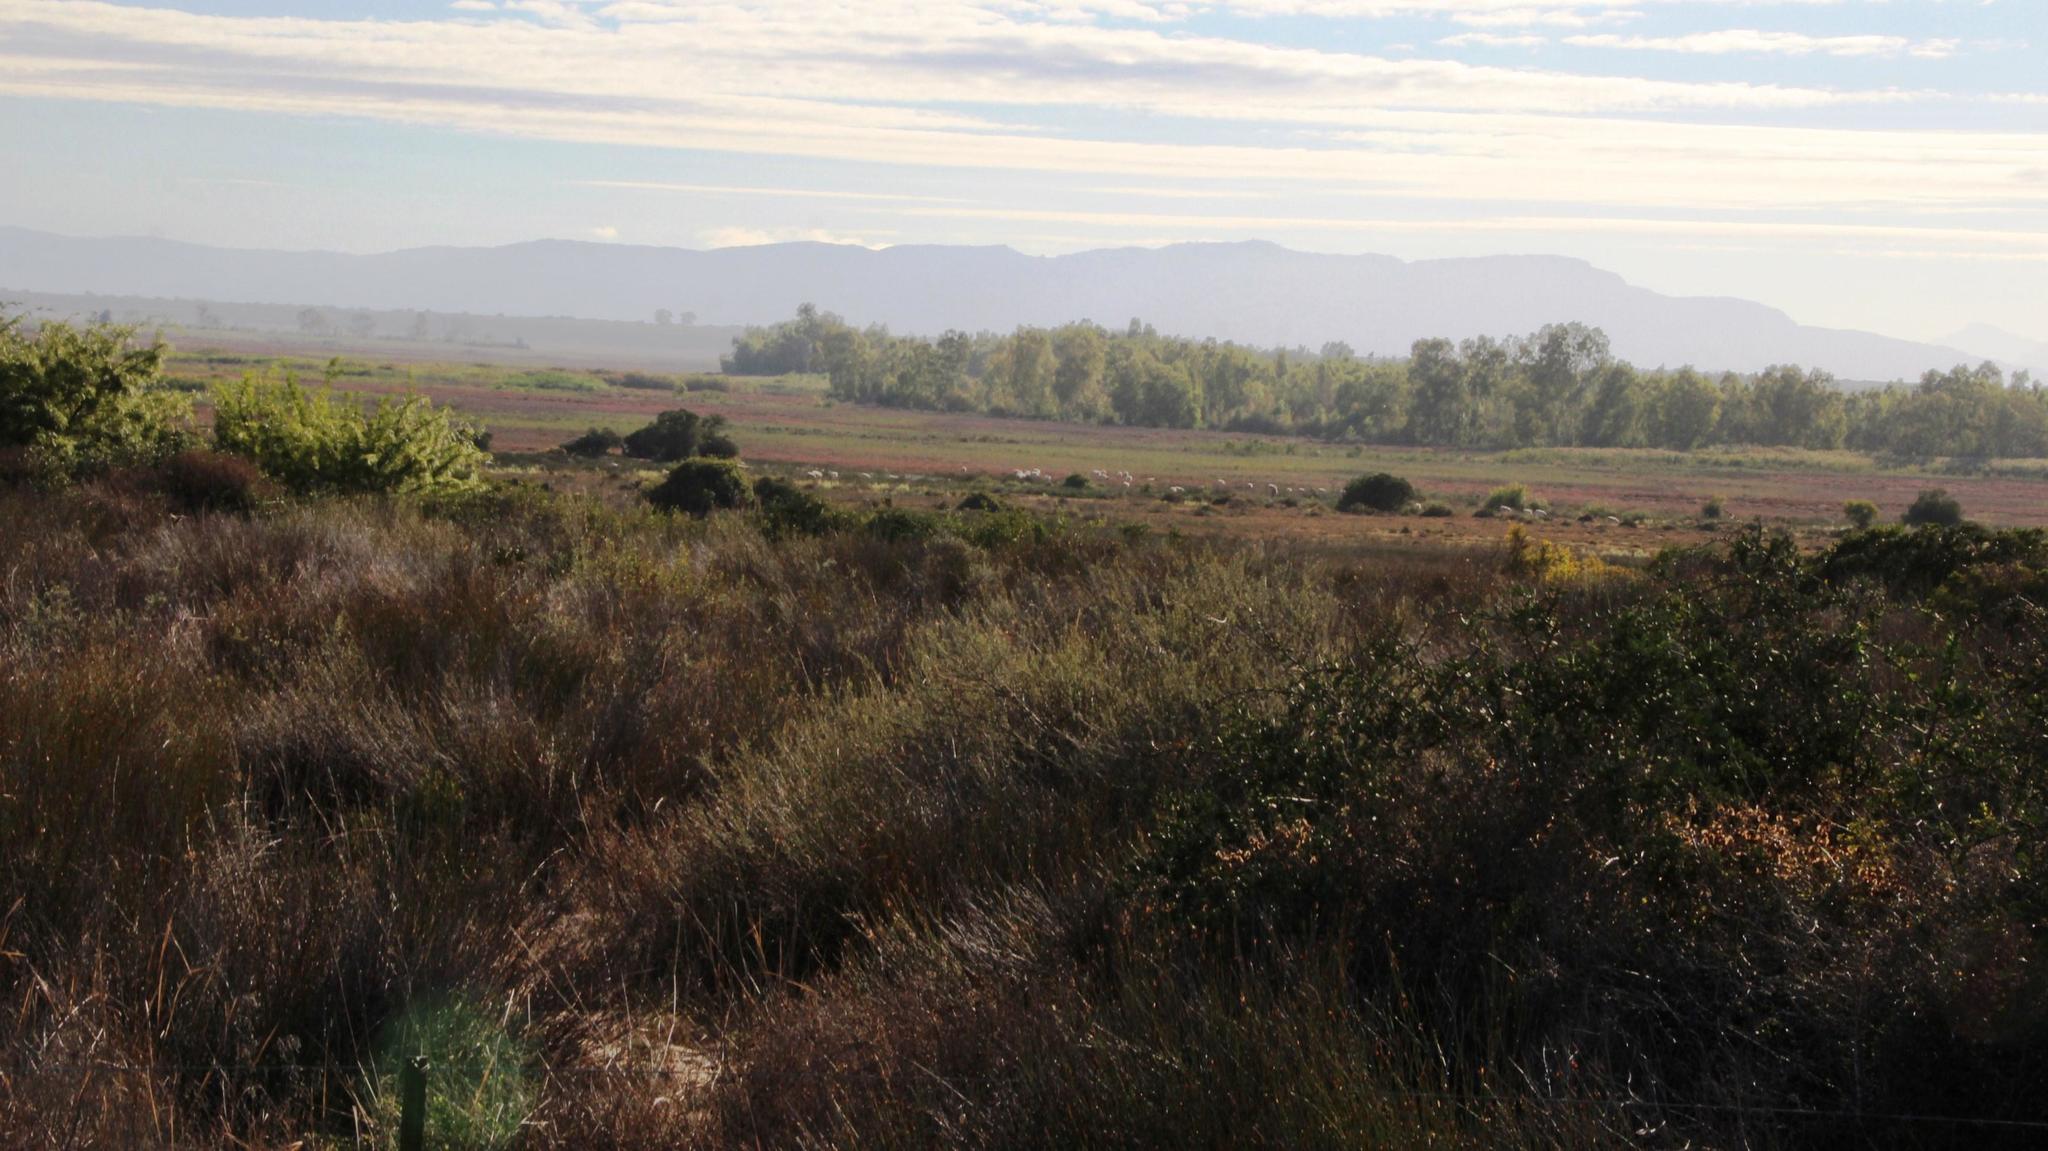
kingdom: Plantae
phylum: Tracheophyta
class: Liliopsida
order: Poales
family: Restionaceae
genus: Willdenowia
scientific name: Willdenowia incurvata
